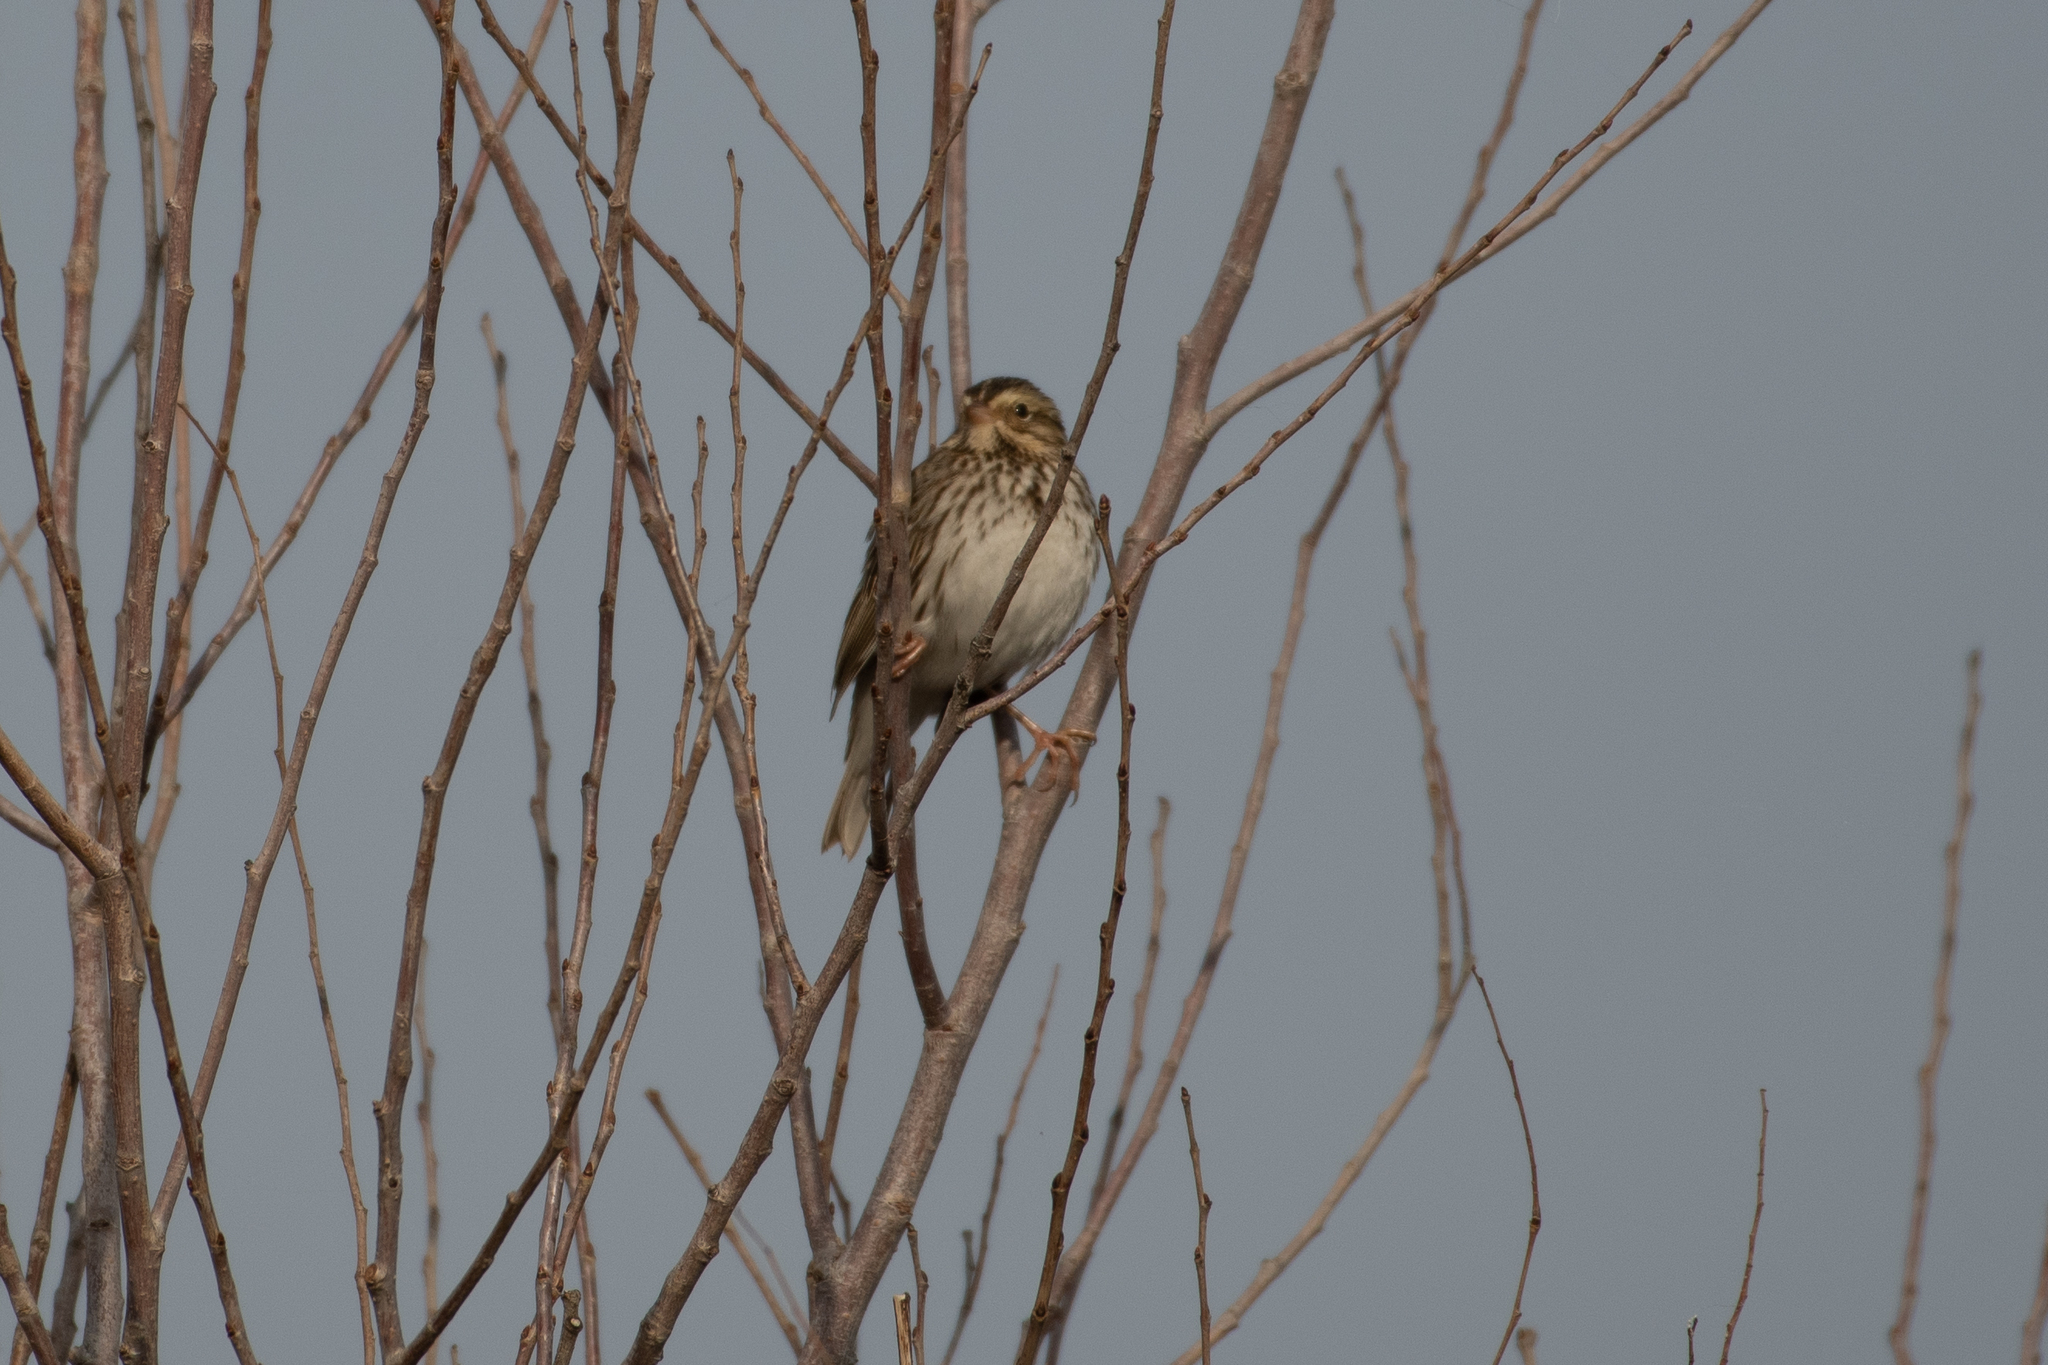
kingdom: Animalia
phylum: Chordata
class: Aves
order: Passeriformes
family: Passerellidae
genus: Passerculus
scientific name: Passerculus sandwichensis
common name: Savannah sparrow
